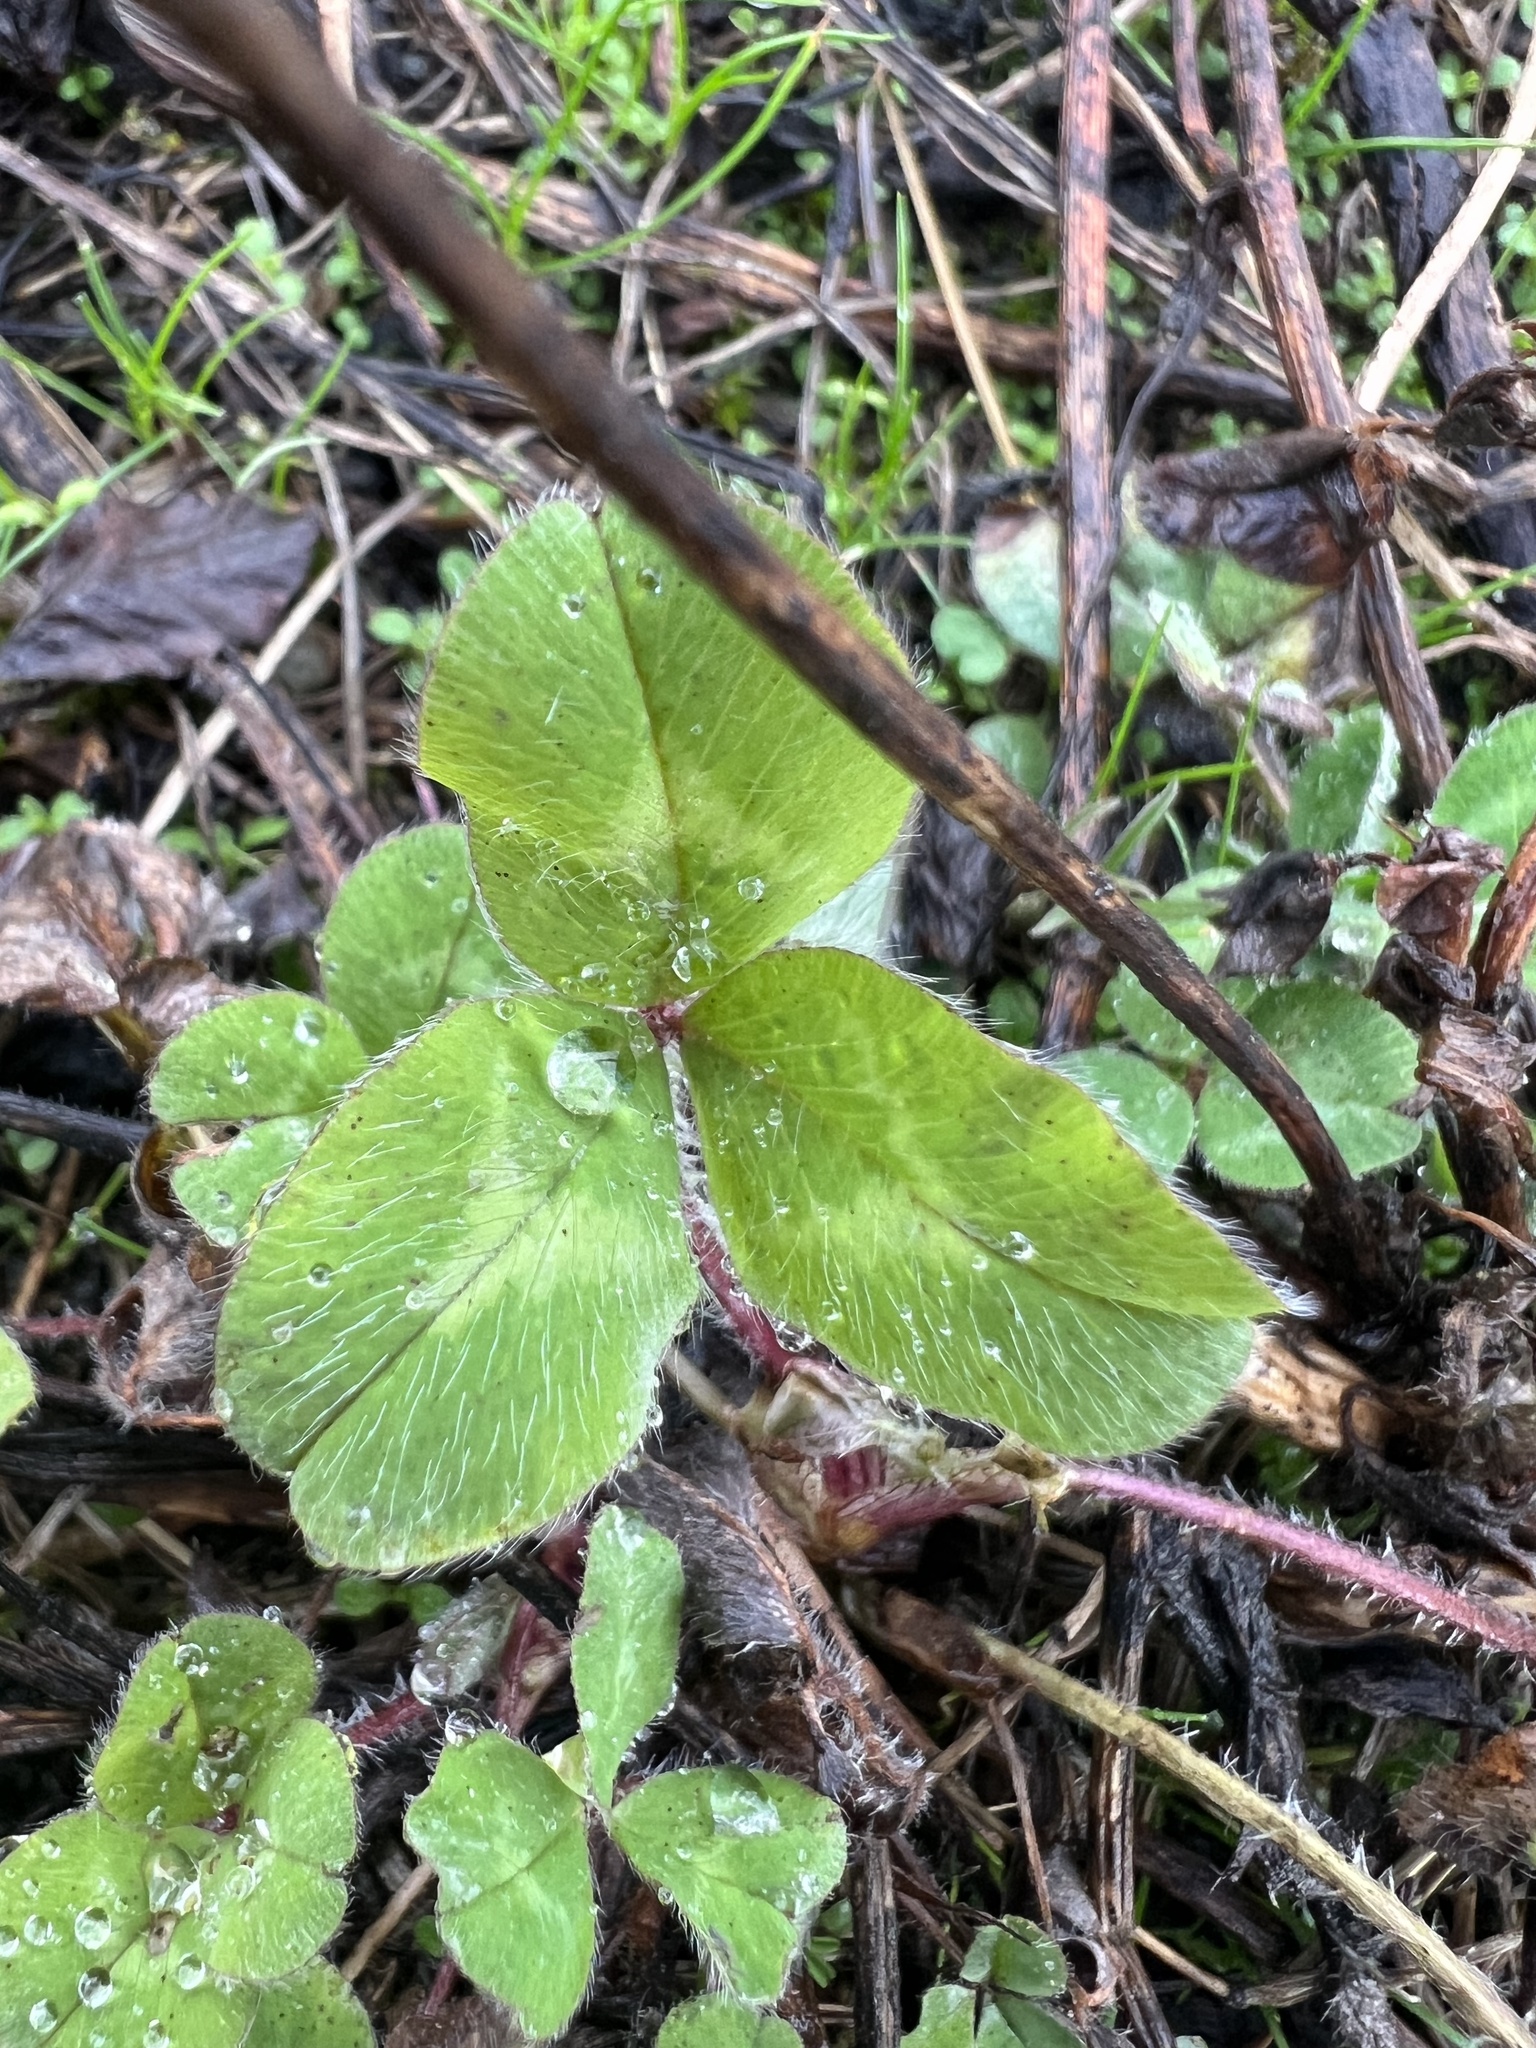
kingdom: Plantae
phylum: Tracheophyta
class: Magnoliopsida
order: Fabales
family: Fabaceae
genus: Trifolium
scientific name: Trifolium pratense
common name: Red clover
